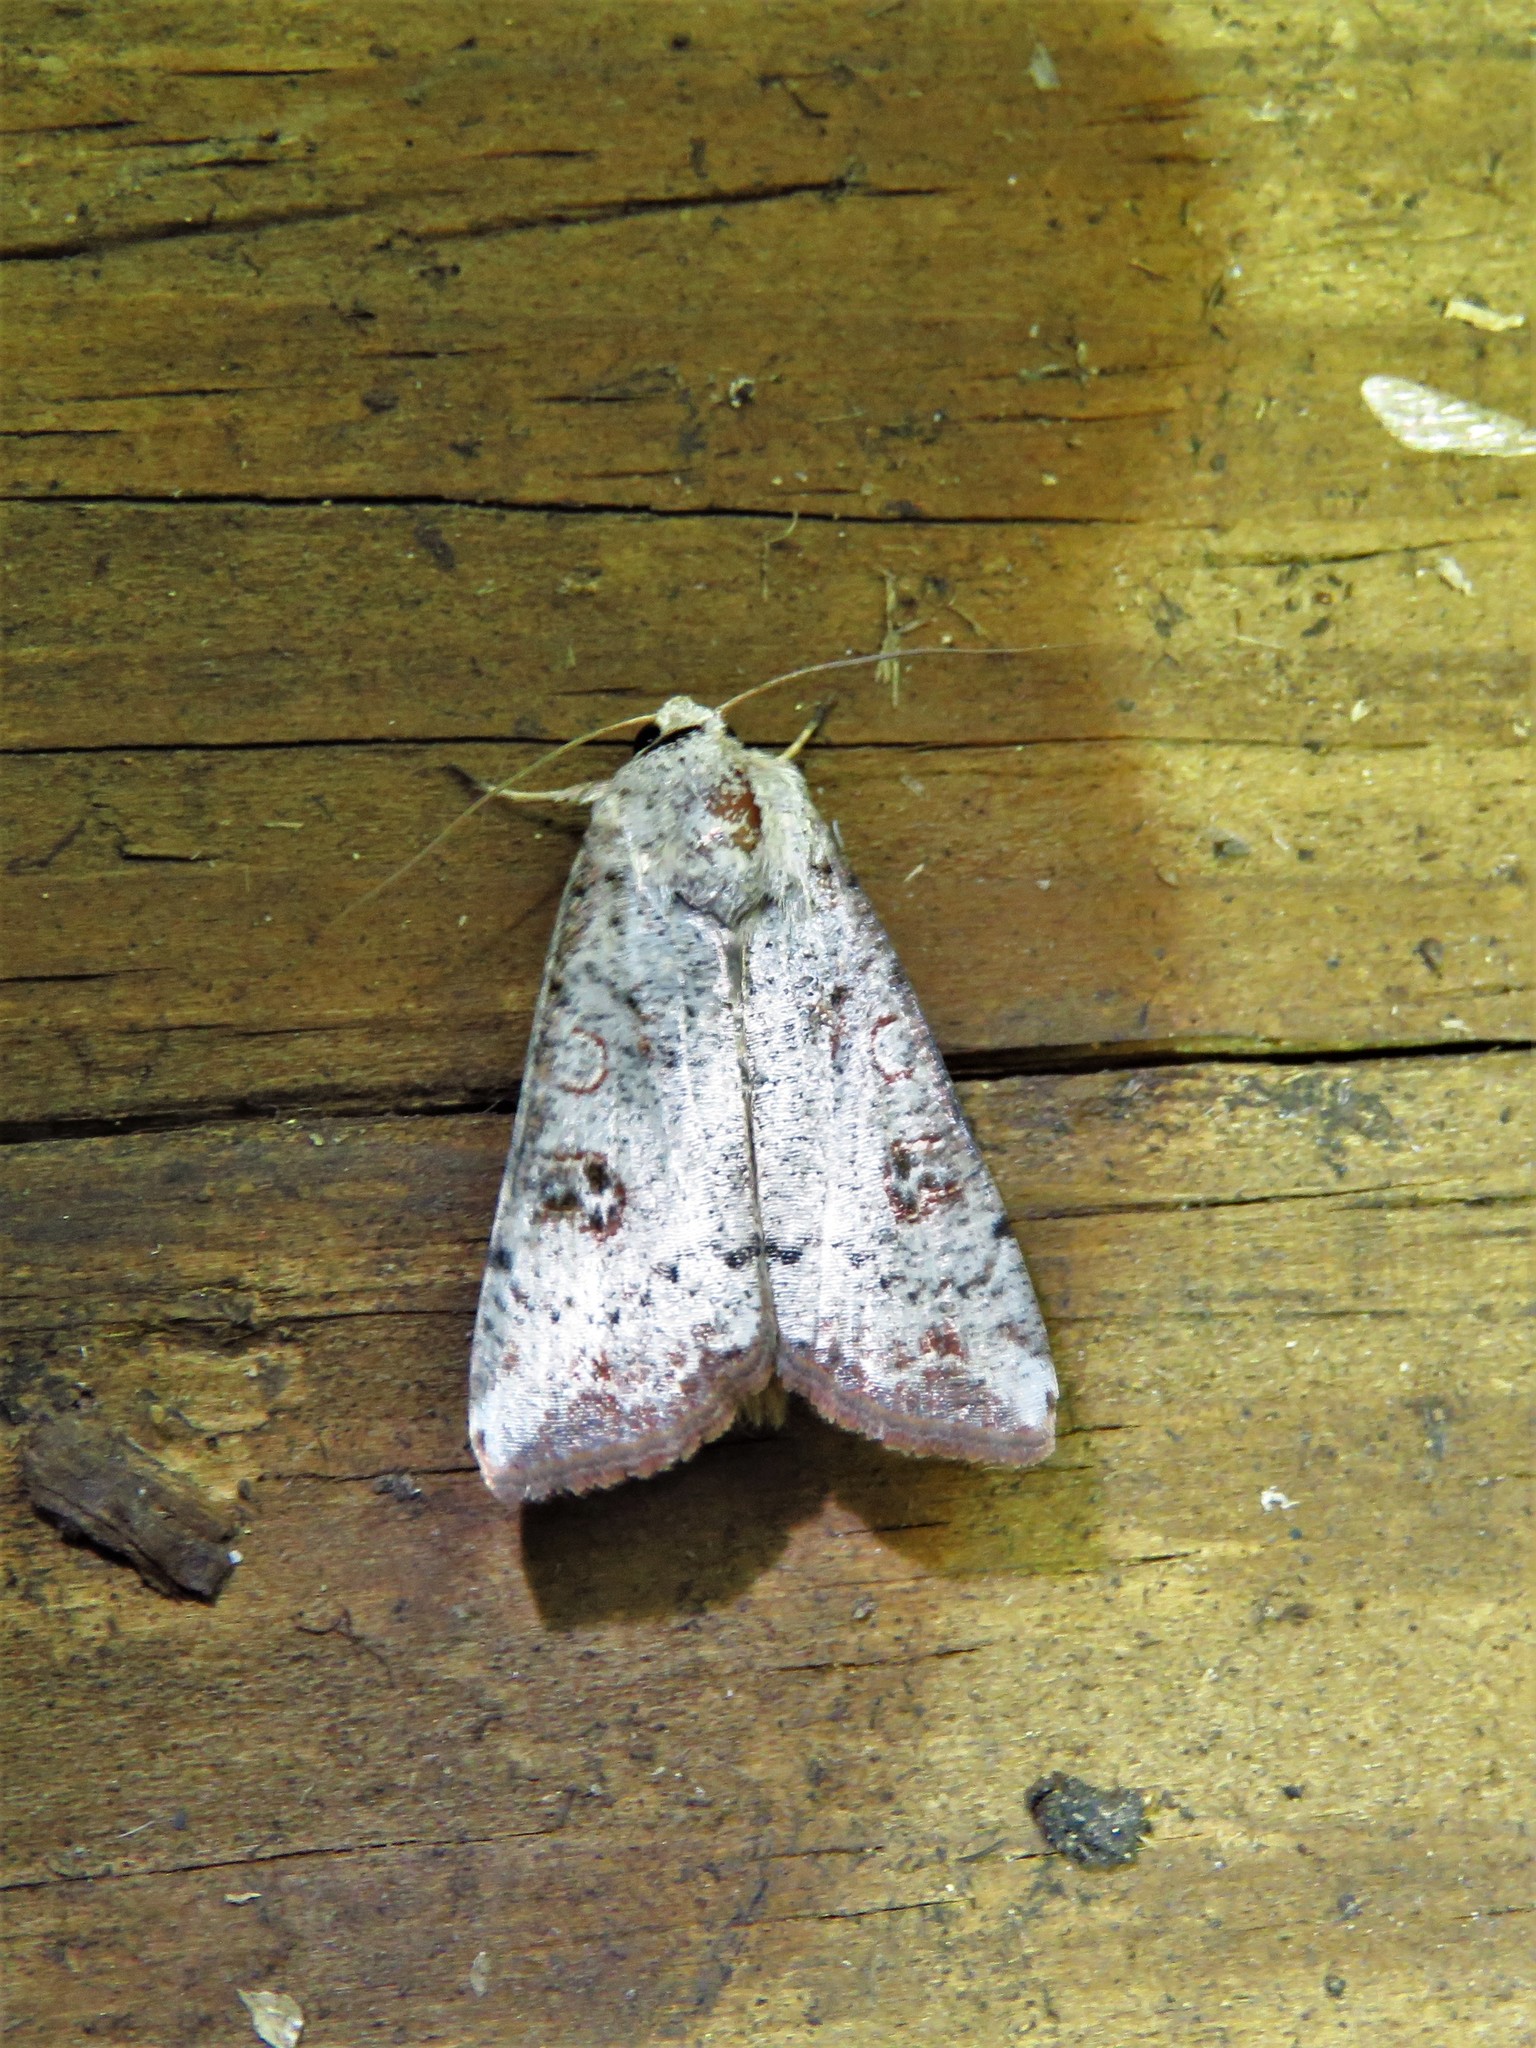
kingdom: Animalia
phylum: Arthropoda
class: Insecta
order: Lepidoptera
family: Noctuidae
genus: Anicla
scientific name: Anicla infecta
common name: Green cutworm
